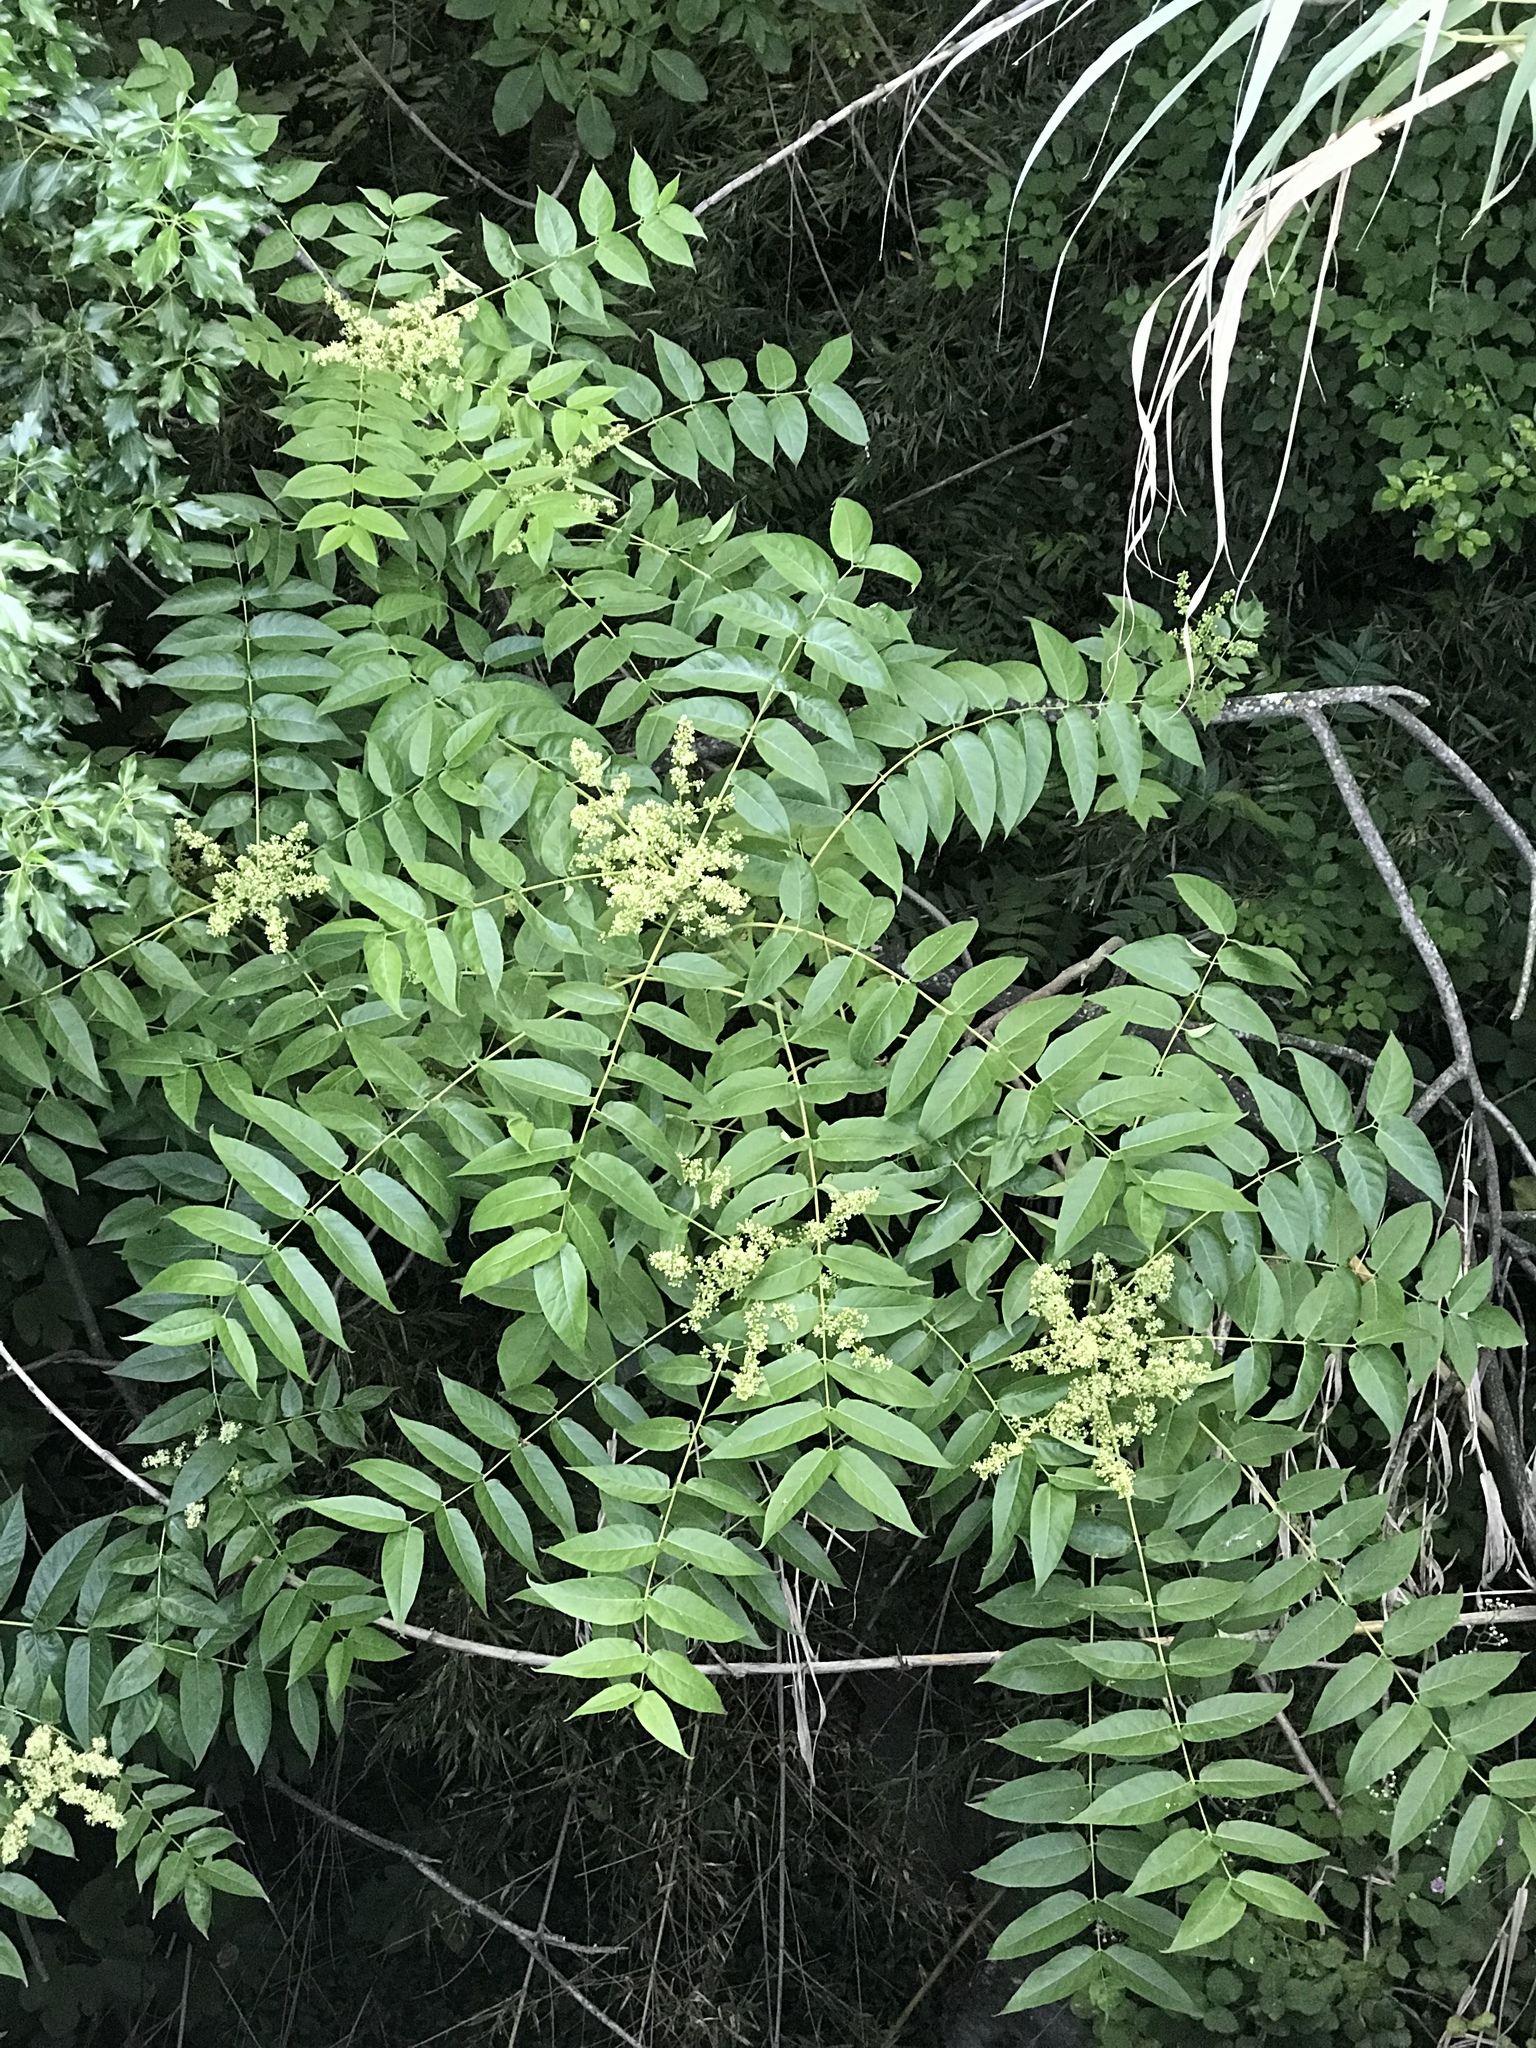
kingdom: Plantae
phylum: Tracheophyta
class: Magnoliopsida
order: Sapindales
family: Simaroubaceae
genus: Ailanthus
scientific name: Ailanthus altissima
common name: Tree-of-heaven
